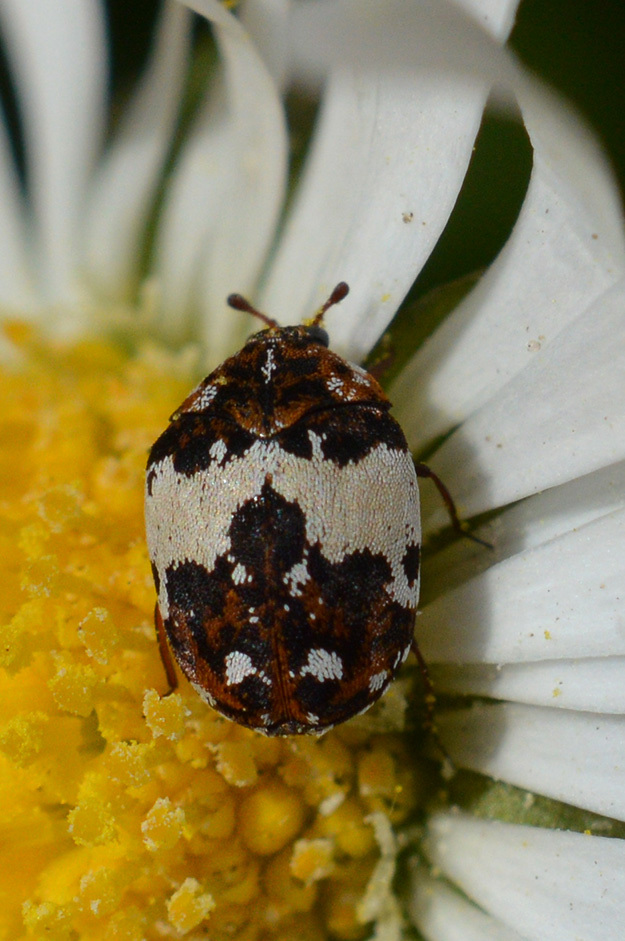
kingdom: Animalia
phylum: Arthropoda
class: Insecta
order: Coleoptera
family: Dermestidae
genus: Anthrenus
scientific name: Anthrenus pimpinellae
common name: Dermestid beetle
